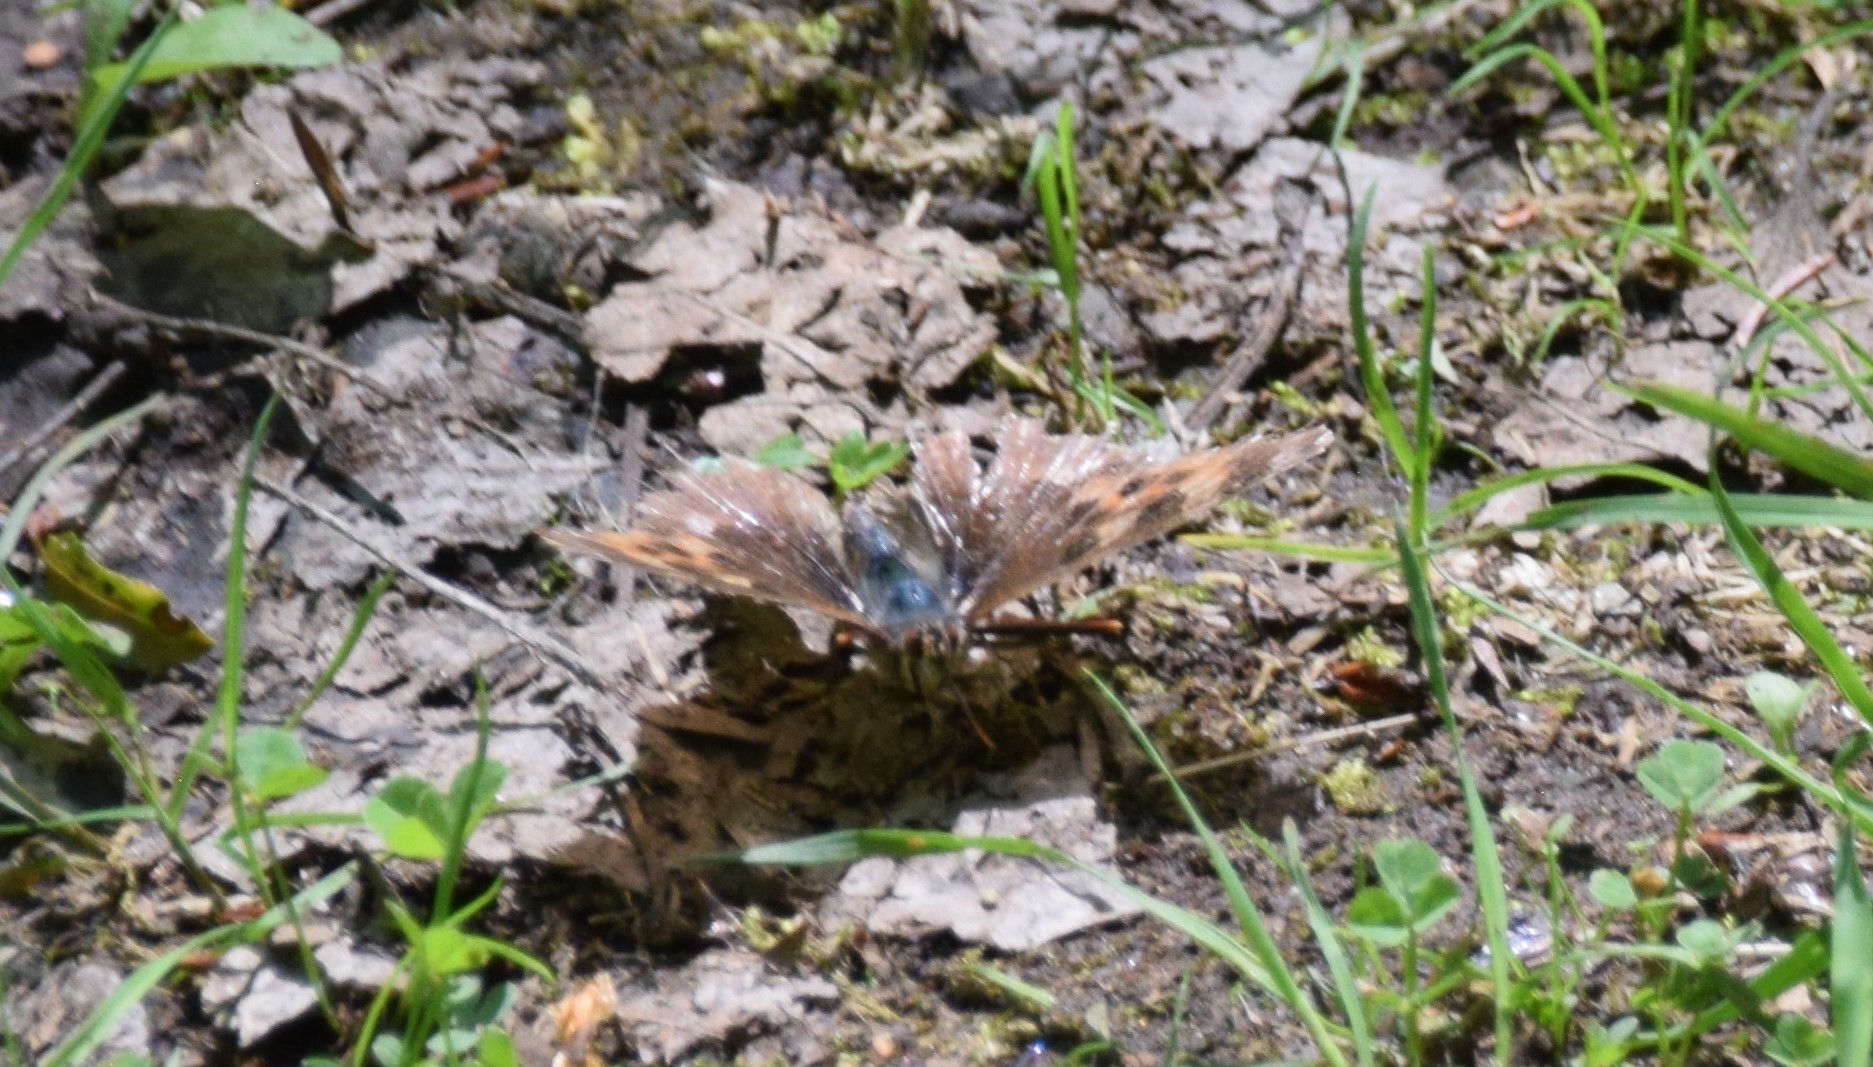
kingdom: Animalia
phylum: Arthropoda
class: Insecta
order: Lepidoptera
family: Nymphalidae
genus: Polygonia
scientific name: Polygonia vaualbum
